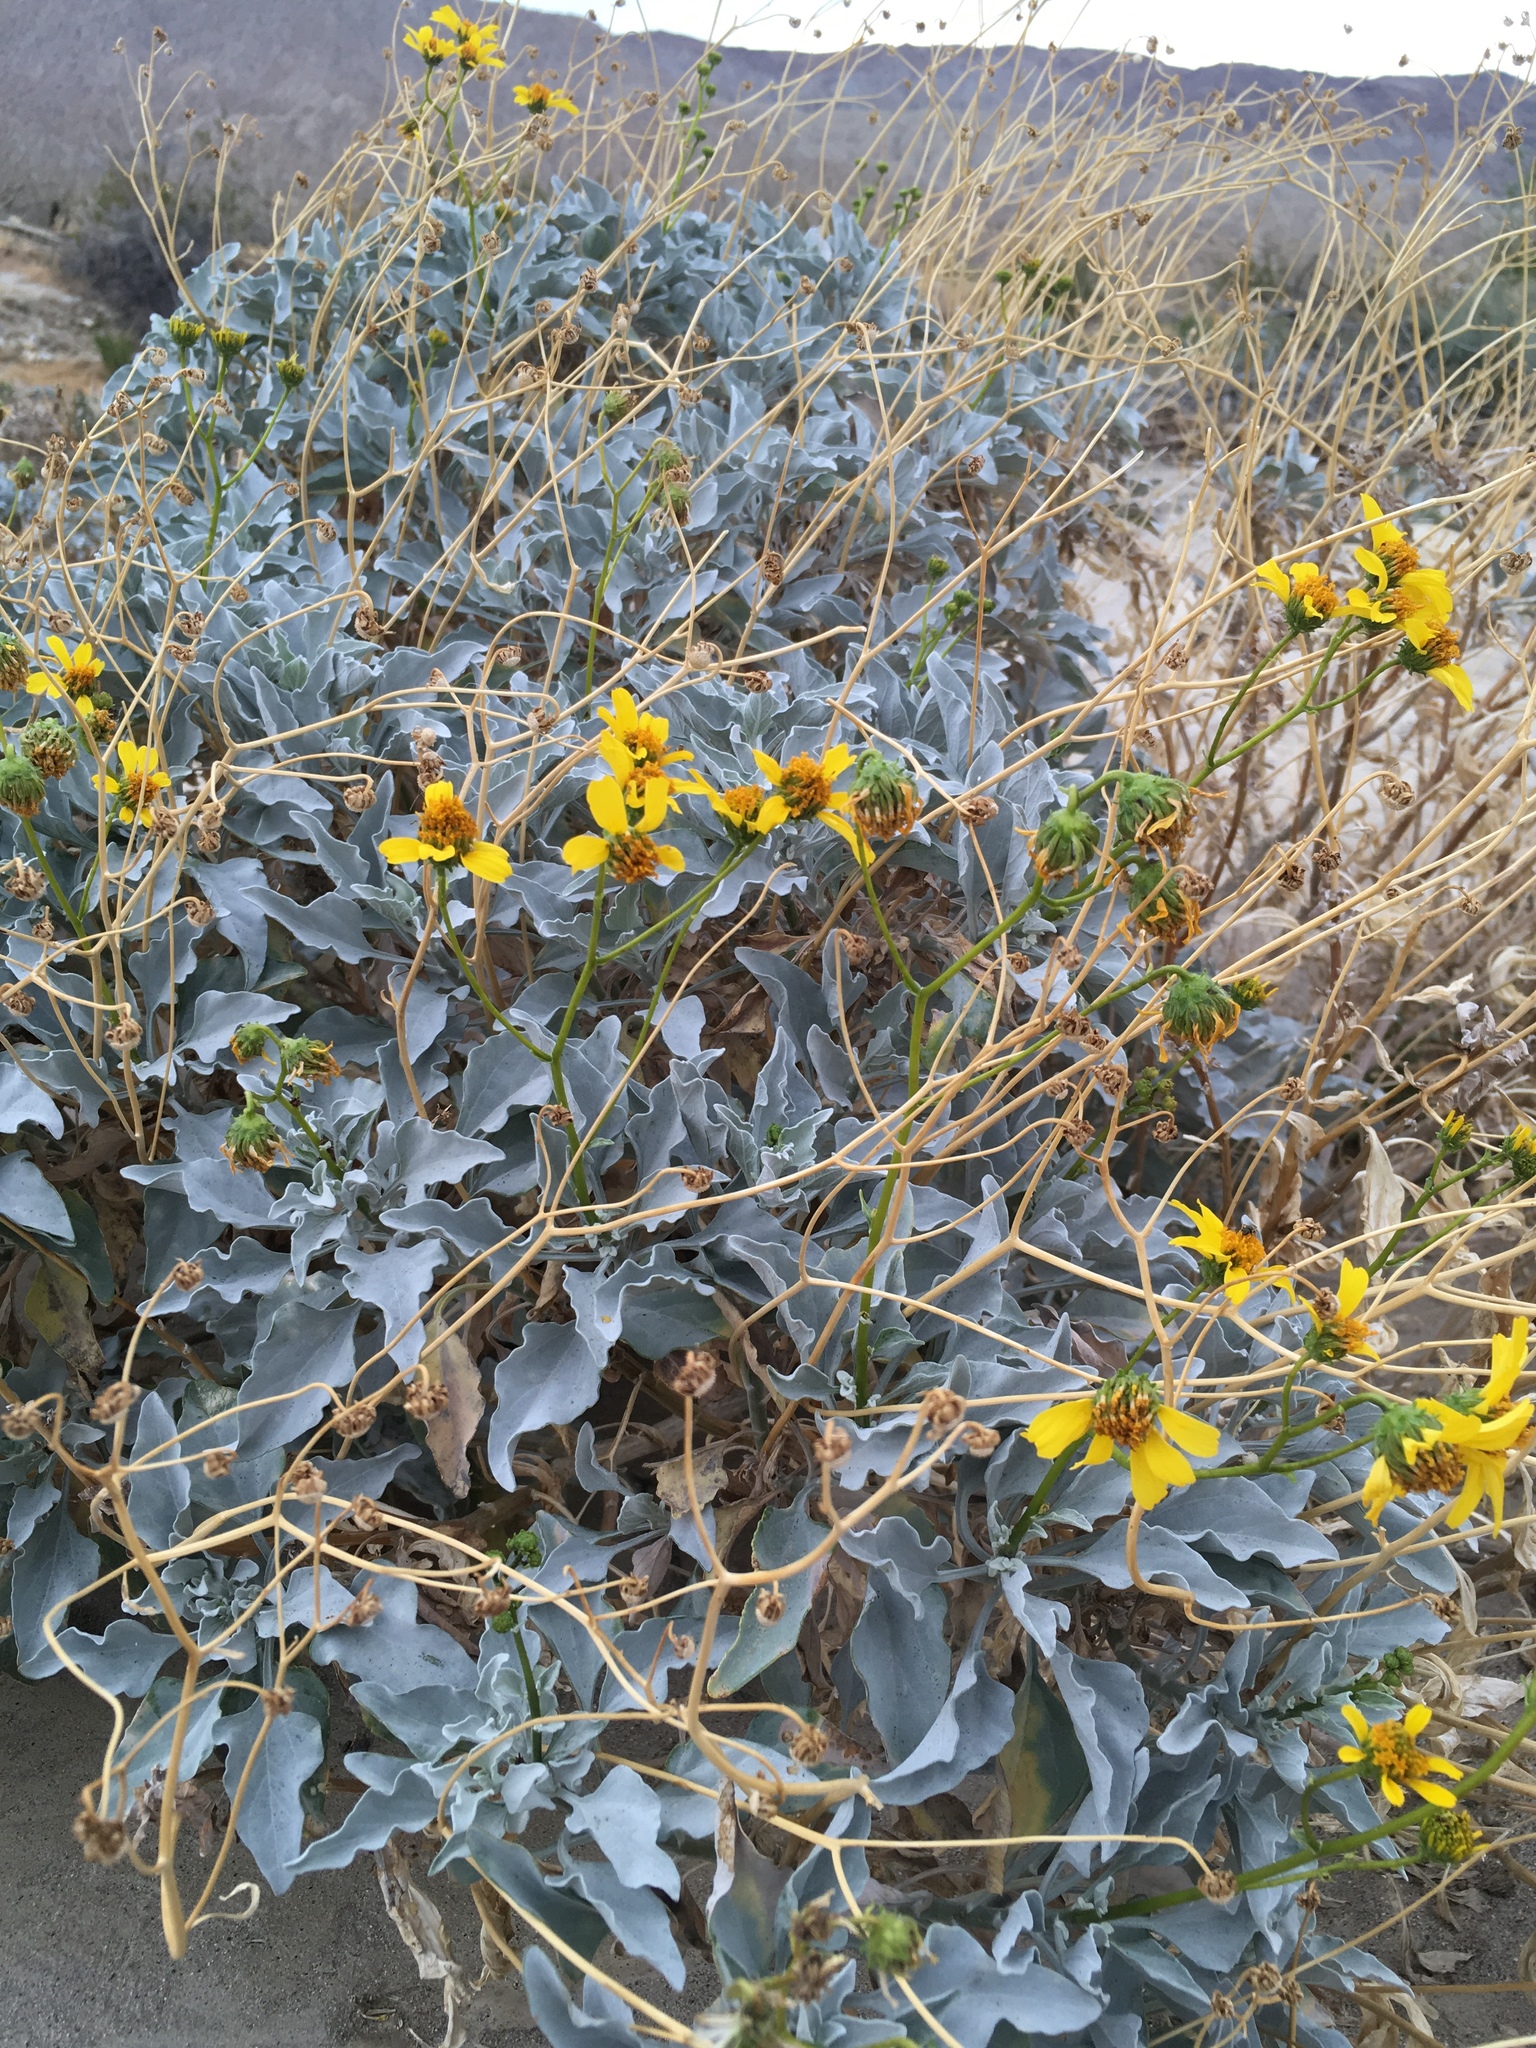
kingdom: Plantae
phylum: Tracheophyta
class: Magnoliopsida
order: Asterales
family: Asteraceae
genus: Encelia
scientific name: Encelia farinosa
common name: Brittlebush
